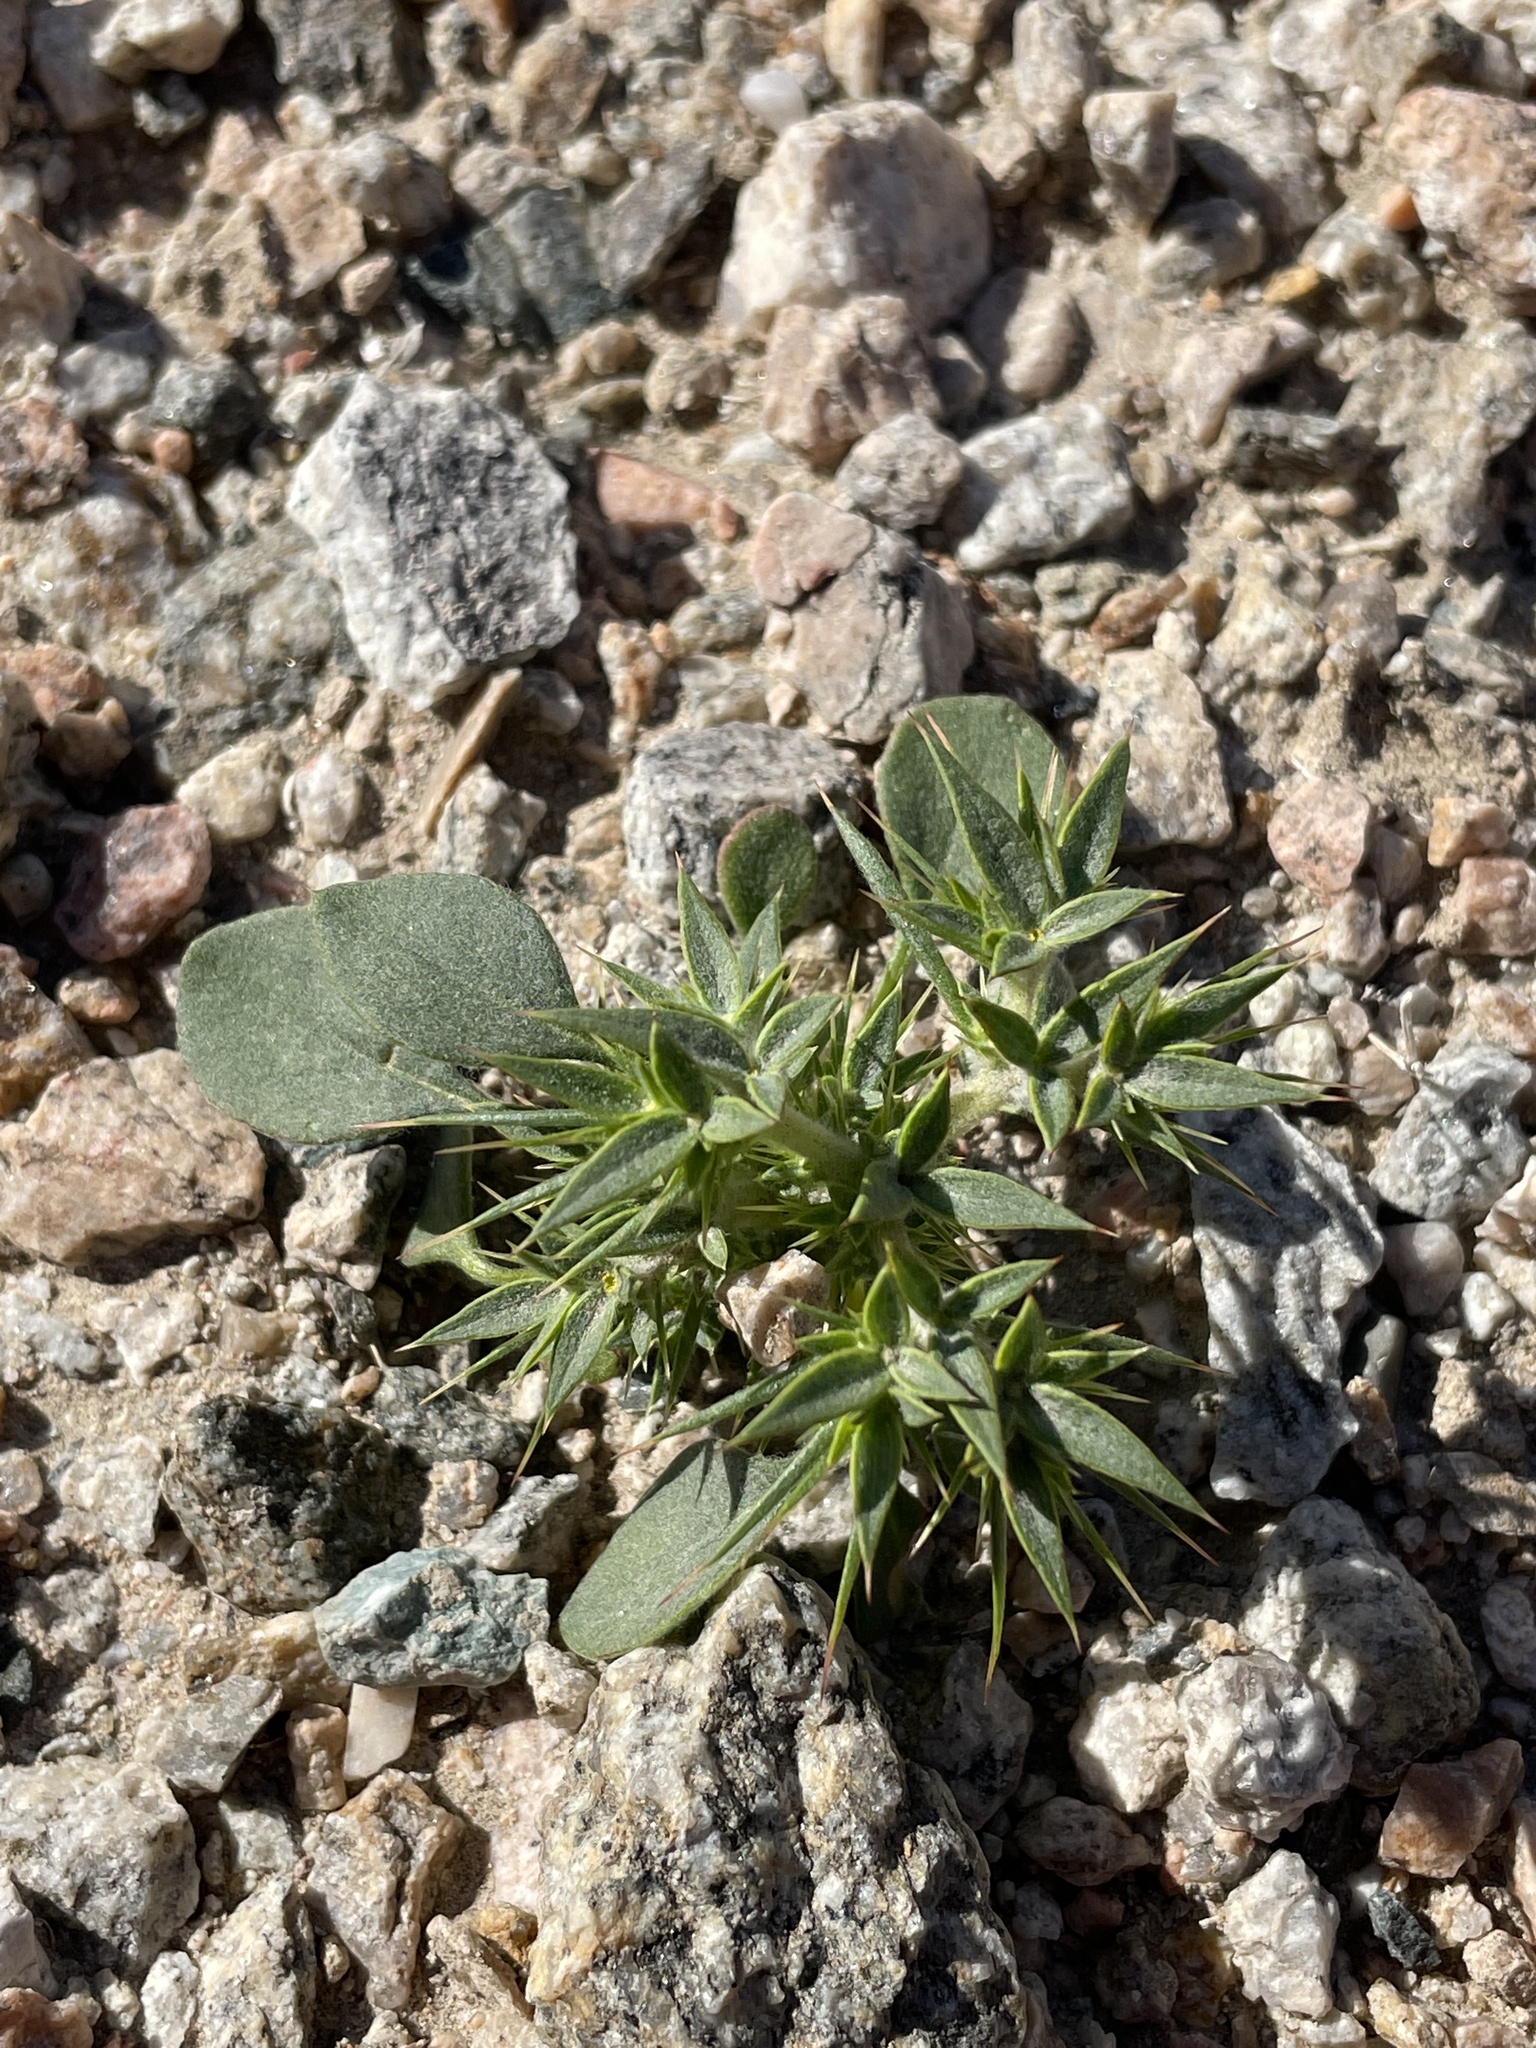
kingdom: Plantae
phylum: Tracheophyta
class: Magnoliopsida
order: Caryophyllales
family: Polygonaceae
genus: Chorizanthe
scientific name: Chorizanthe rigida
